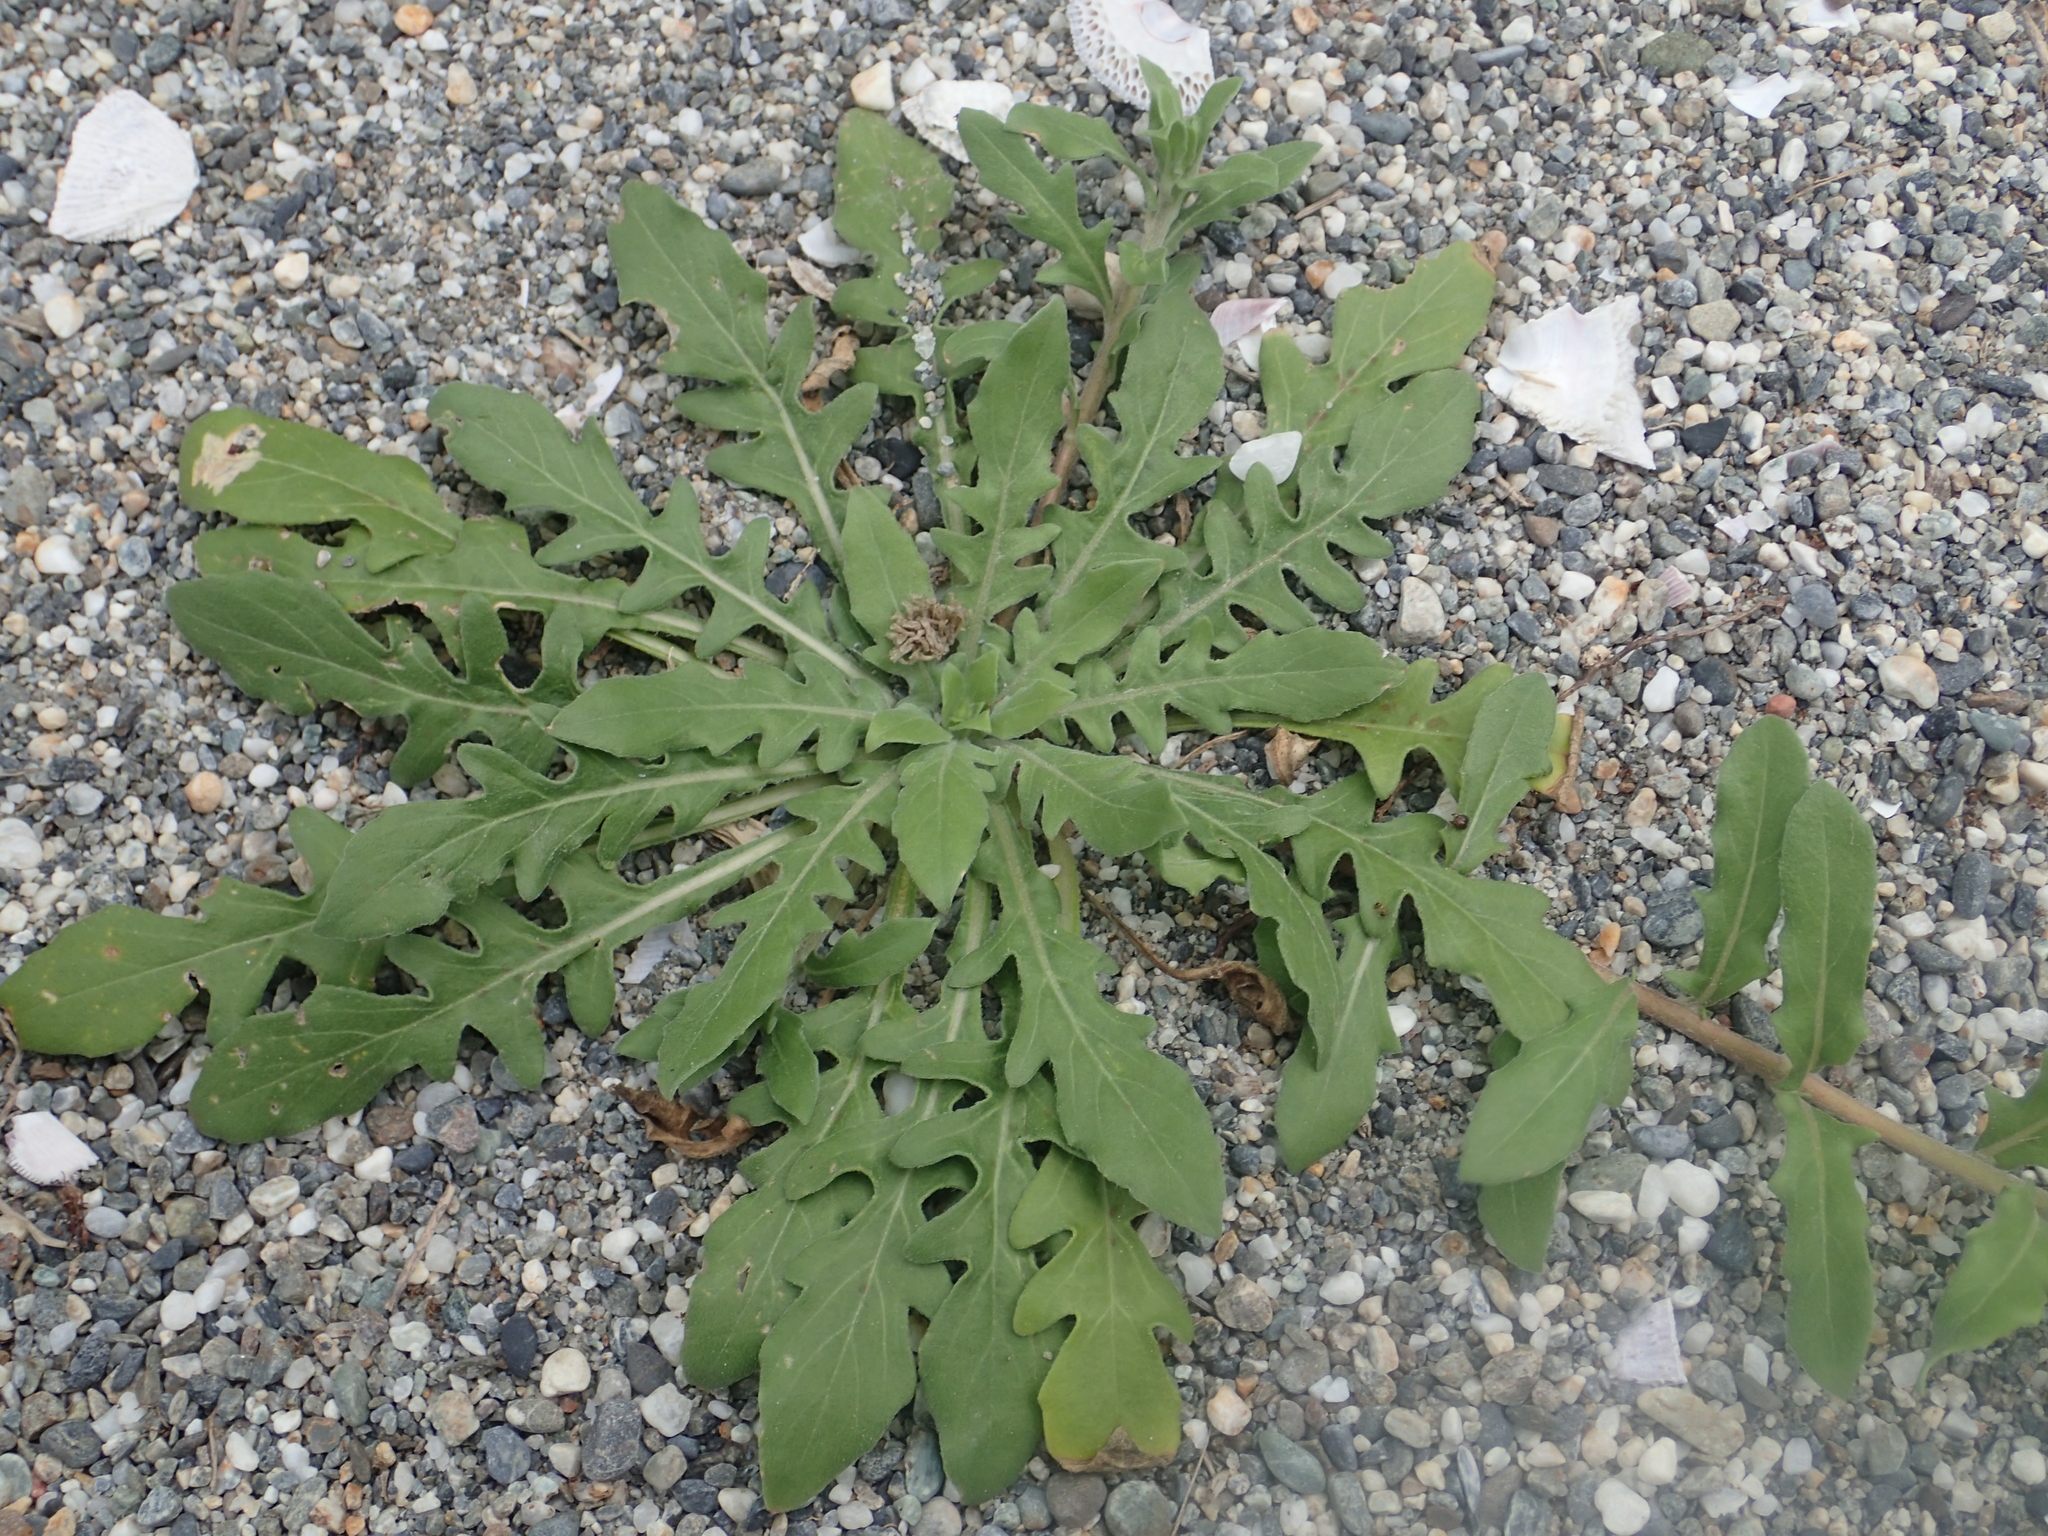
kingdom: Plantae
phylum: Tracheophyta
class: Magnoliopsida
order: Myrtales
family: Onagraceae
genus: Oenothera
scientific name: Oenothera laciniata
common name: Cut-leaved evening-primrose
